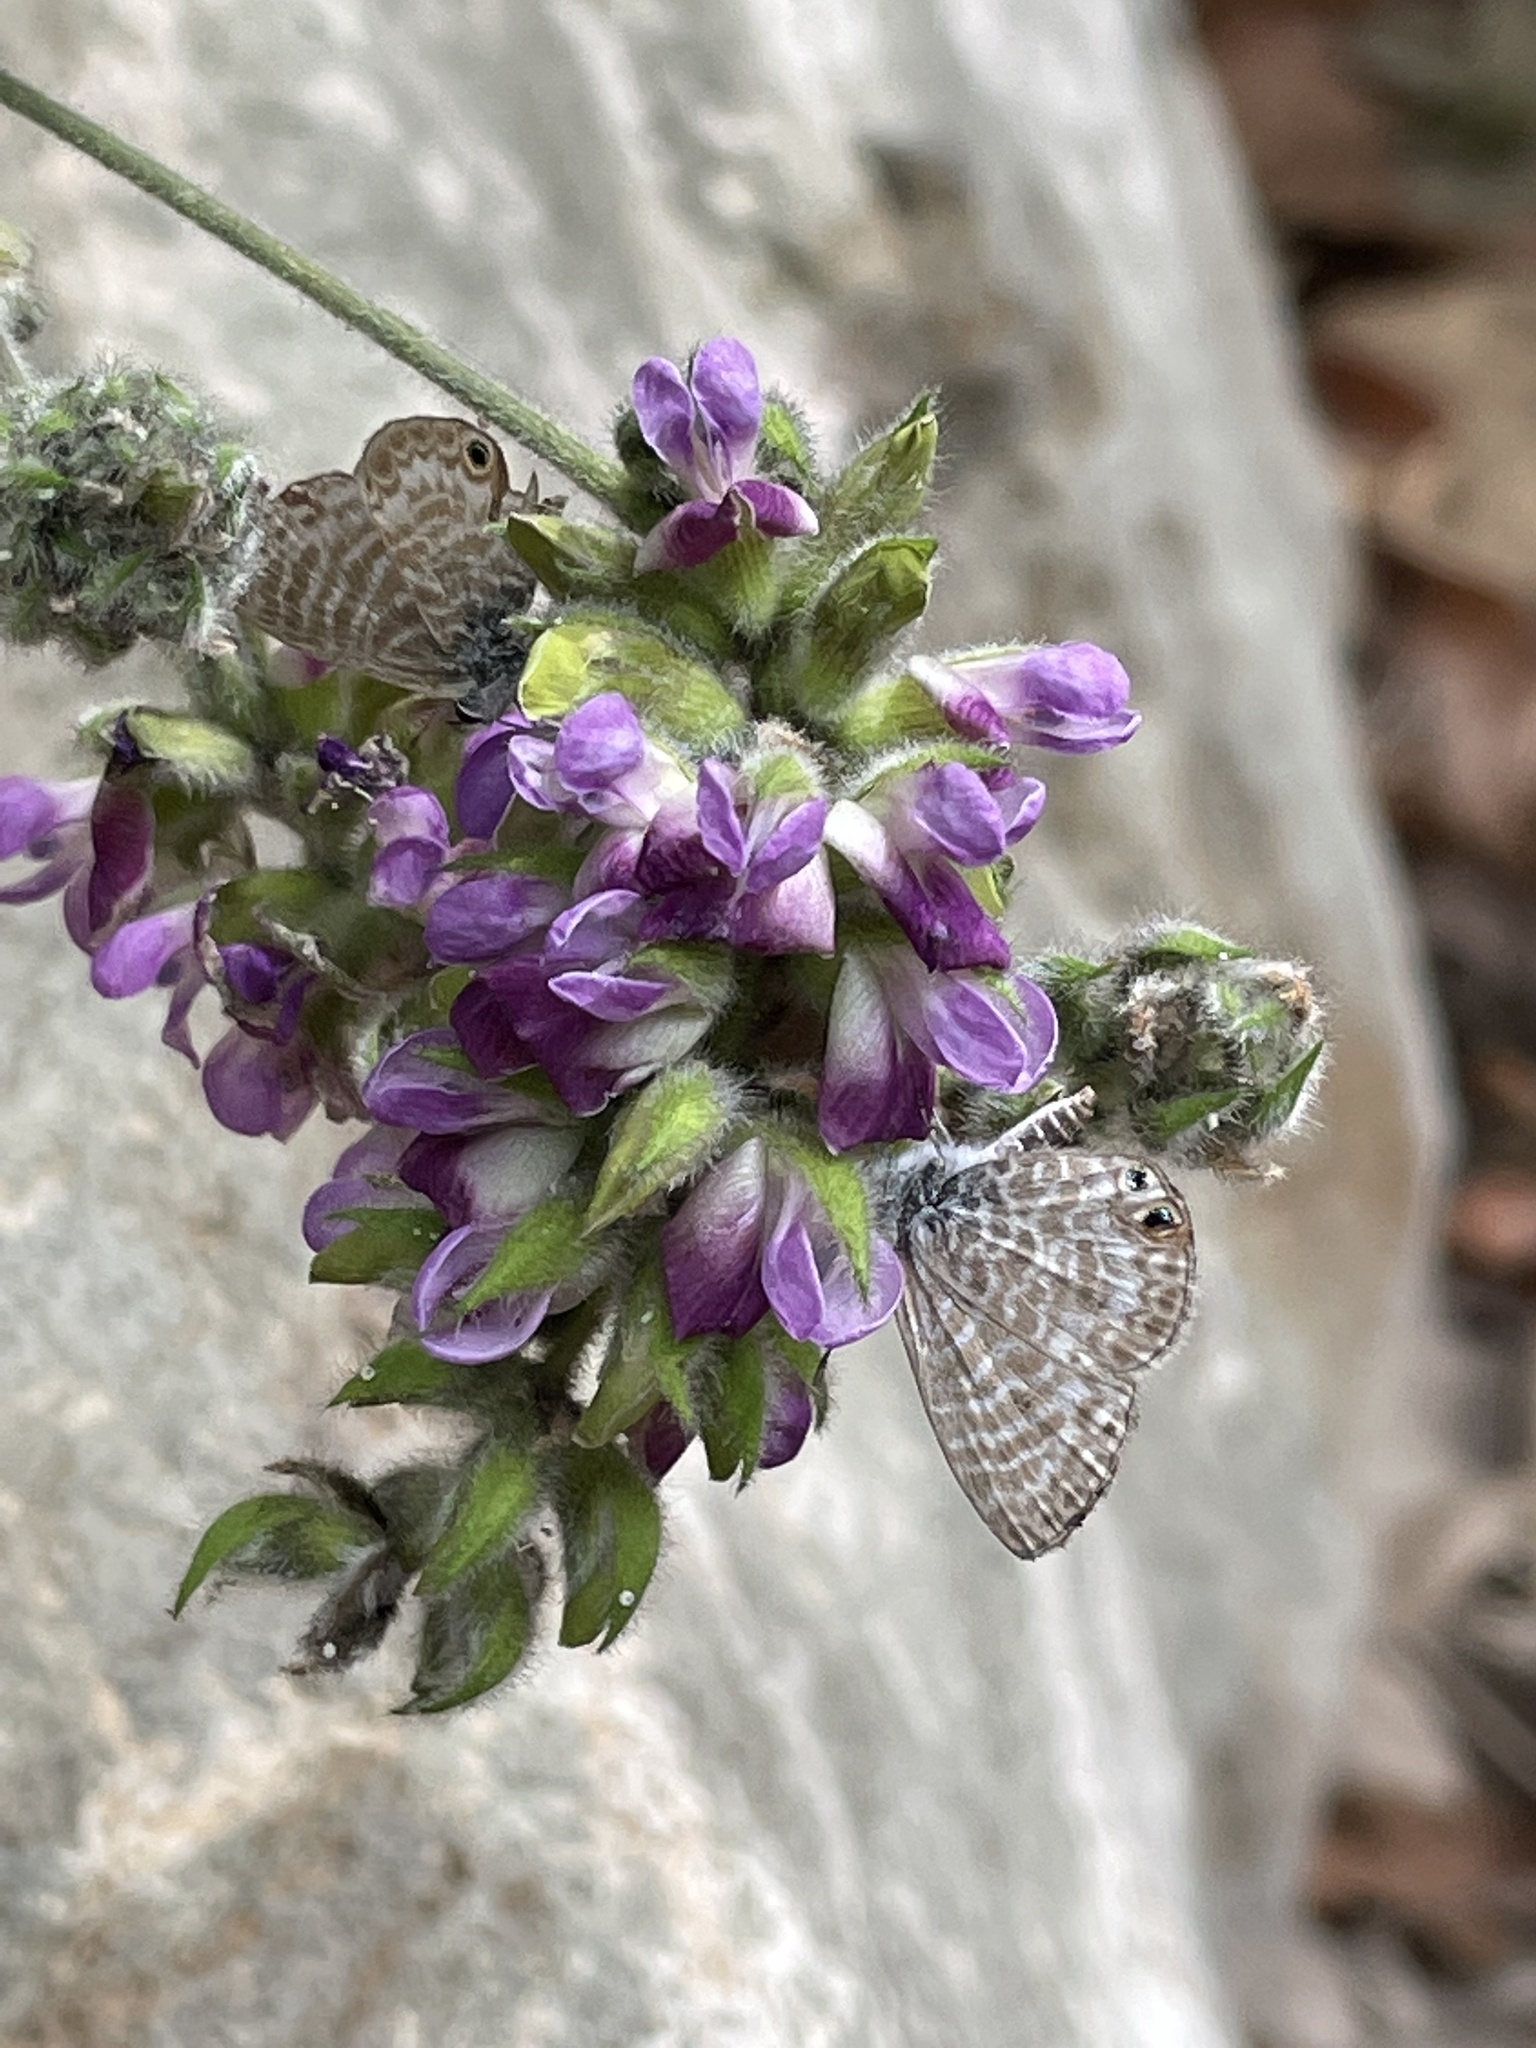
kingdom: Animalia
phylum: Arthropoda
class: Insecta
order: Lepidoptera
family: Lycaenidae
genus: Leptotes
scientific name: Leptotes marina
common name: Marine blue
